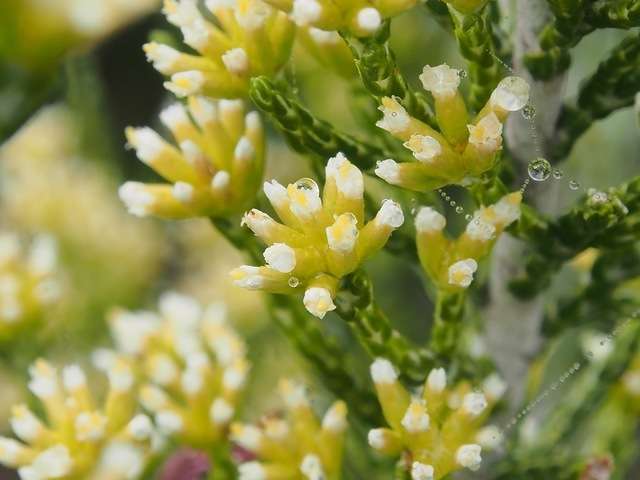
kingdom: Plantae
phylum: Tracheophyta
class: Magnoliopsida
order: Asterales
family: Asteraceae
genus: Ozothamnus
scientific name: Ozothamnus cupressoides
